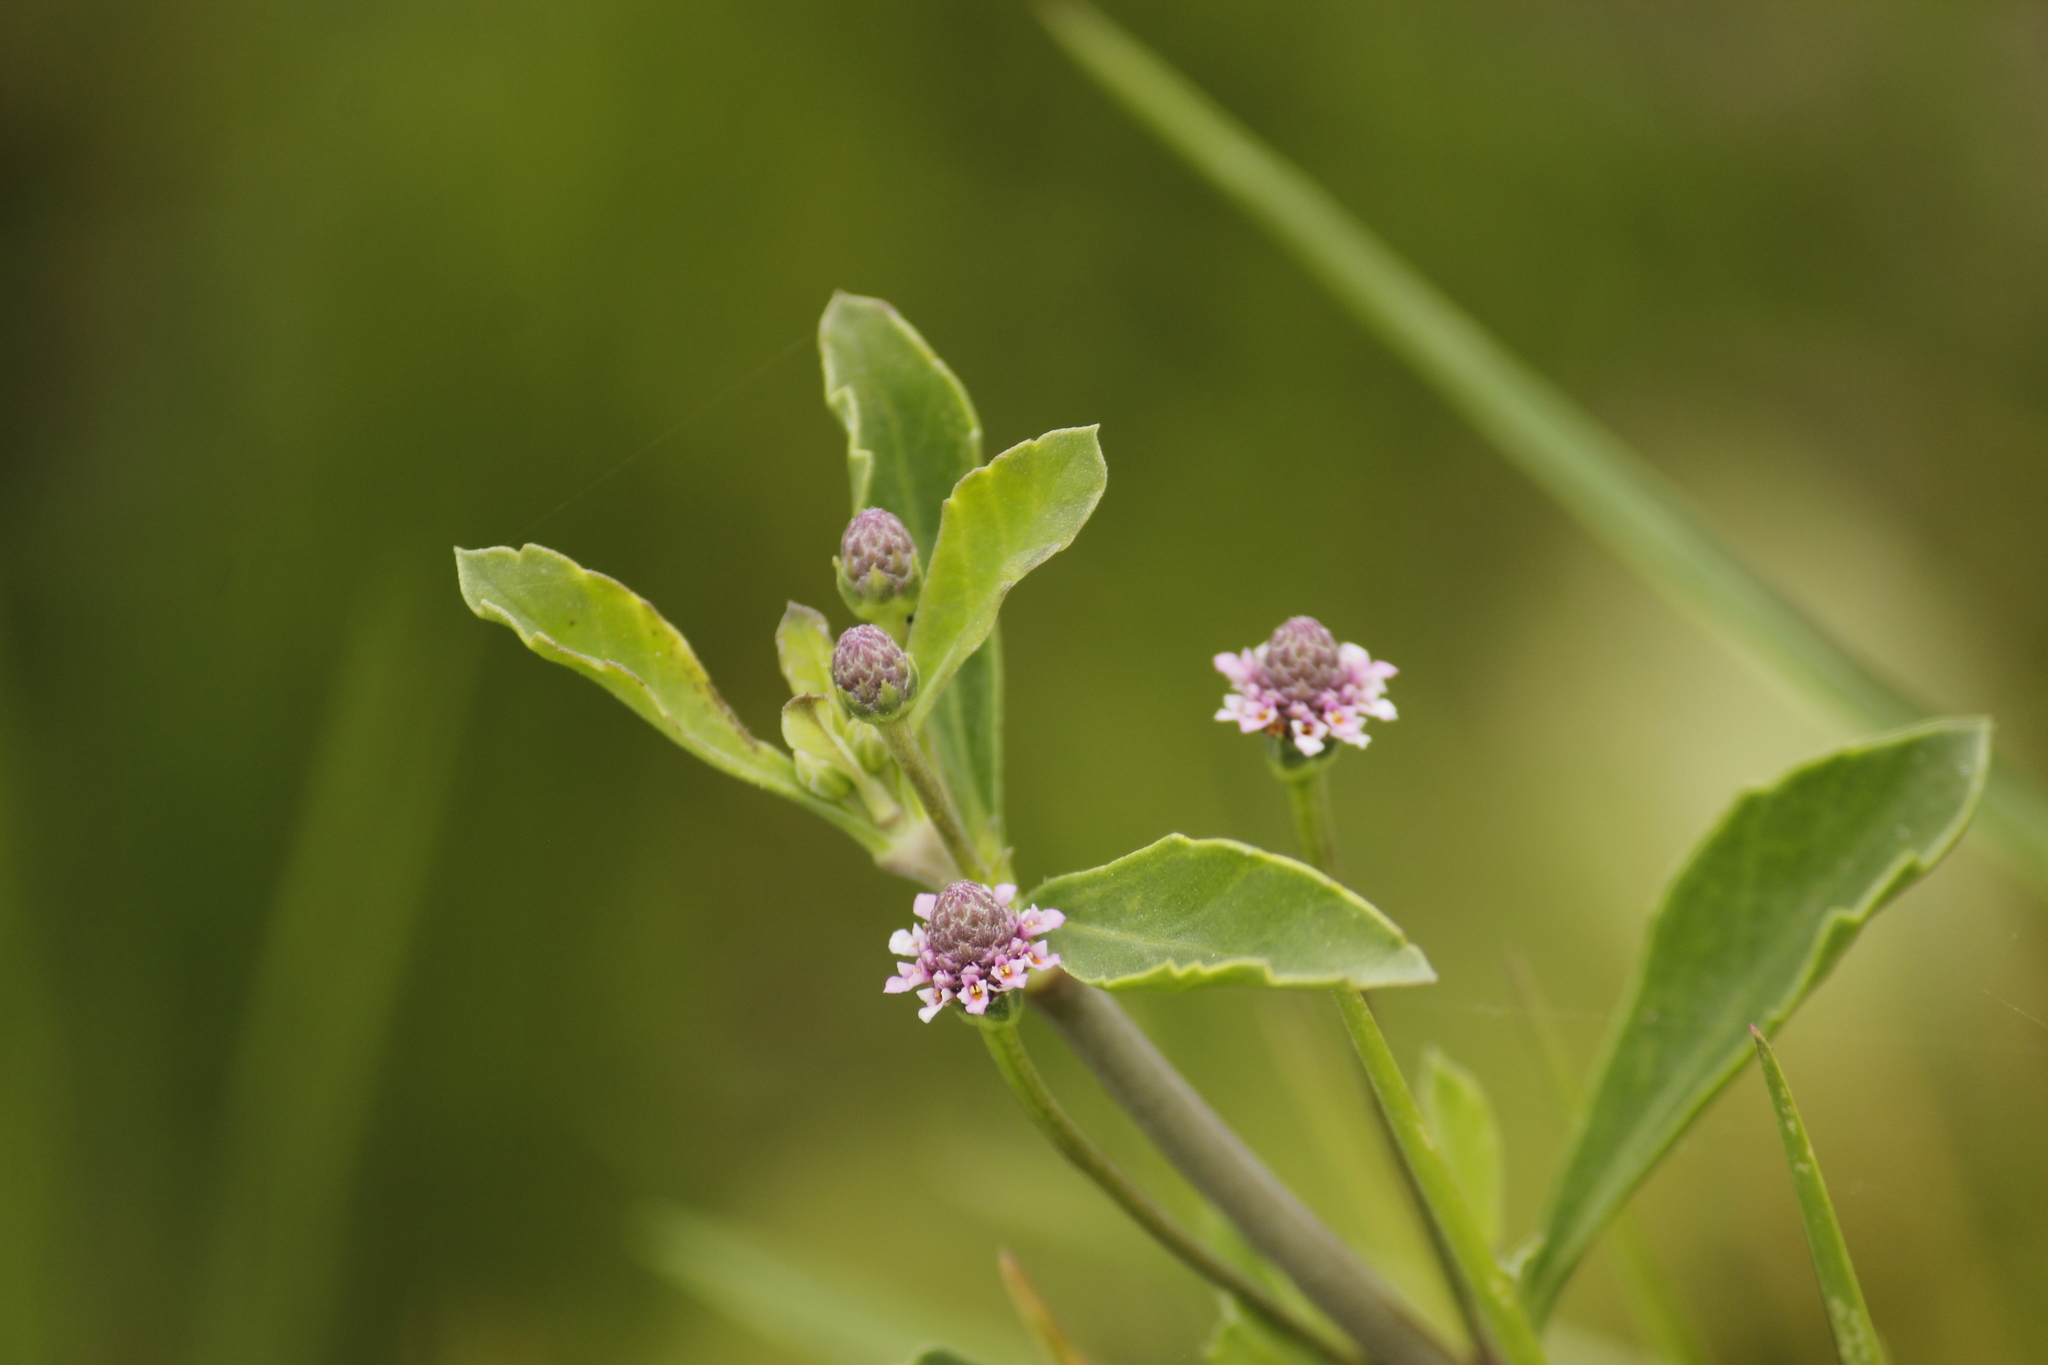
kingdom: Plantae
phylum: Tracheophyta
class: Magnoliopsida
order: Lamiales
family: Verbenaceae
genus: Phyla
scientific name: Phyla nodiflora
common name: Frogfruit
